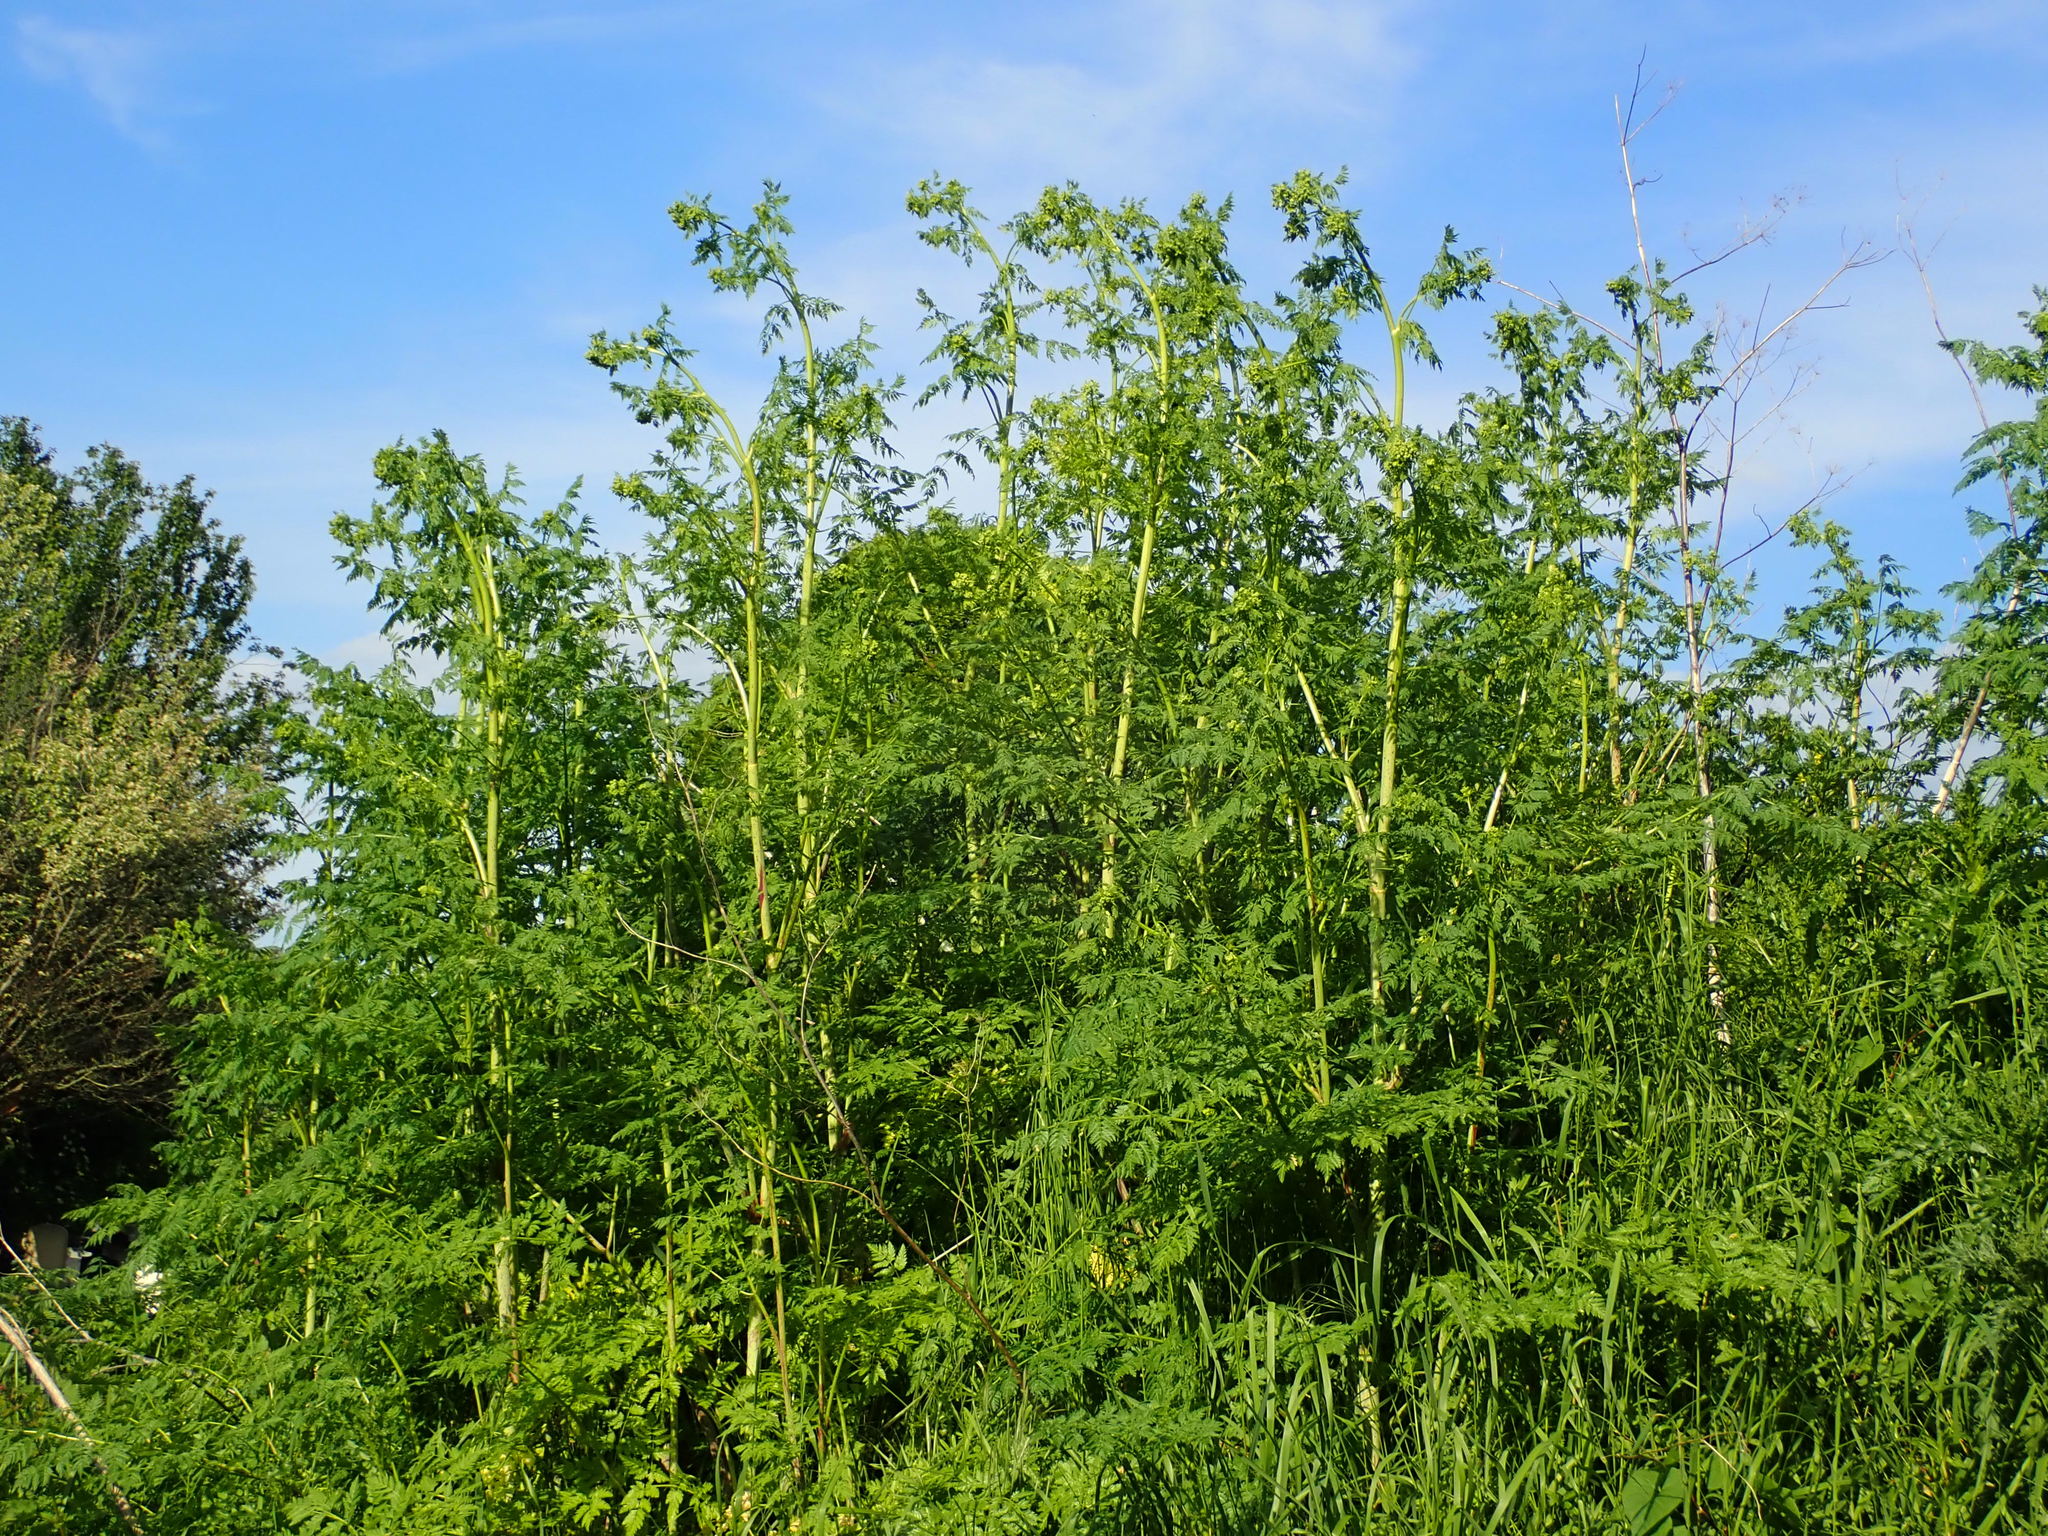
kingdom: Plantae
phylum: Tracheophyta
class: Magnoliopsida
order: Apiales
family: Apiaceae
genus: Conium
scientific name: Conium maculatum
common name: Hemlock
